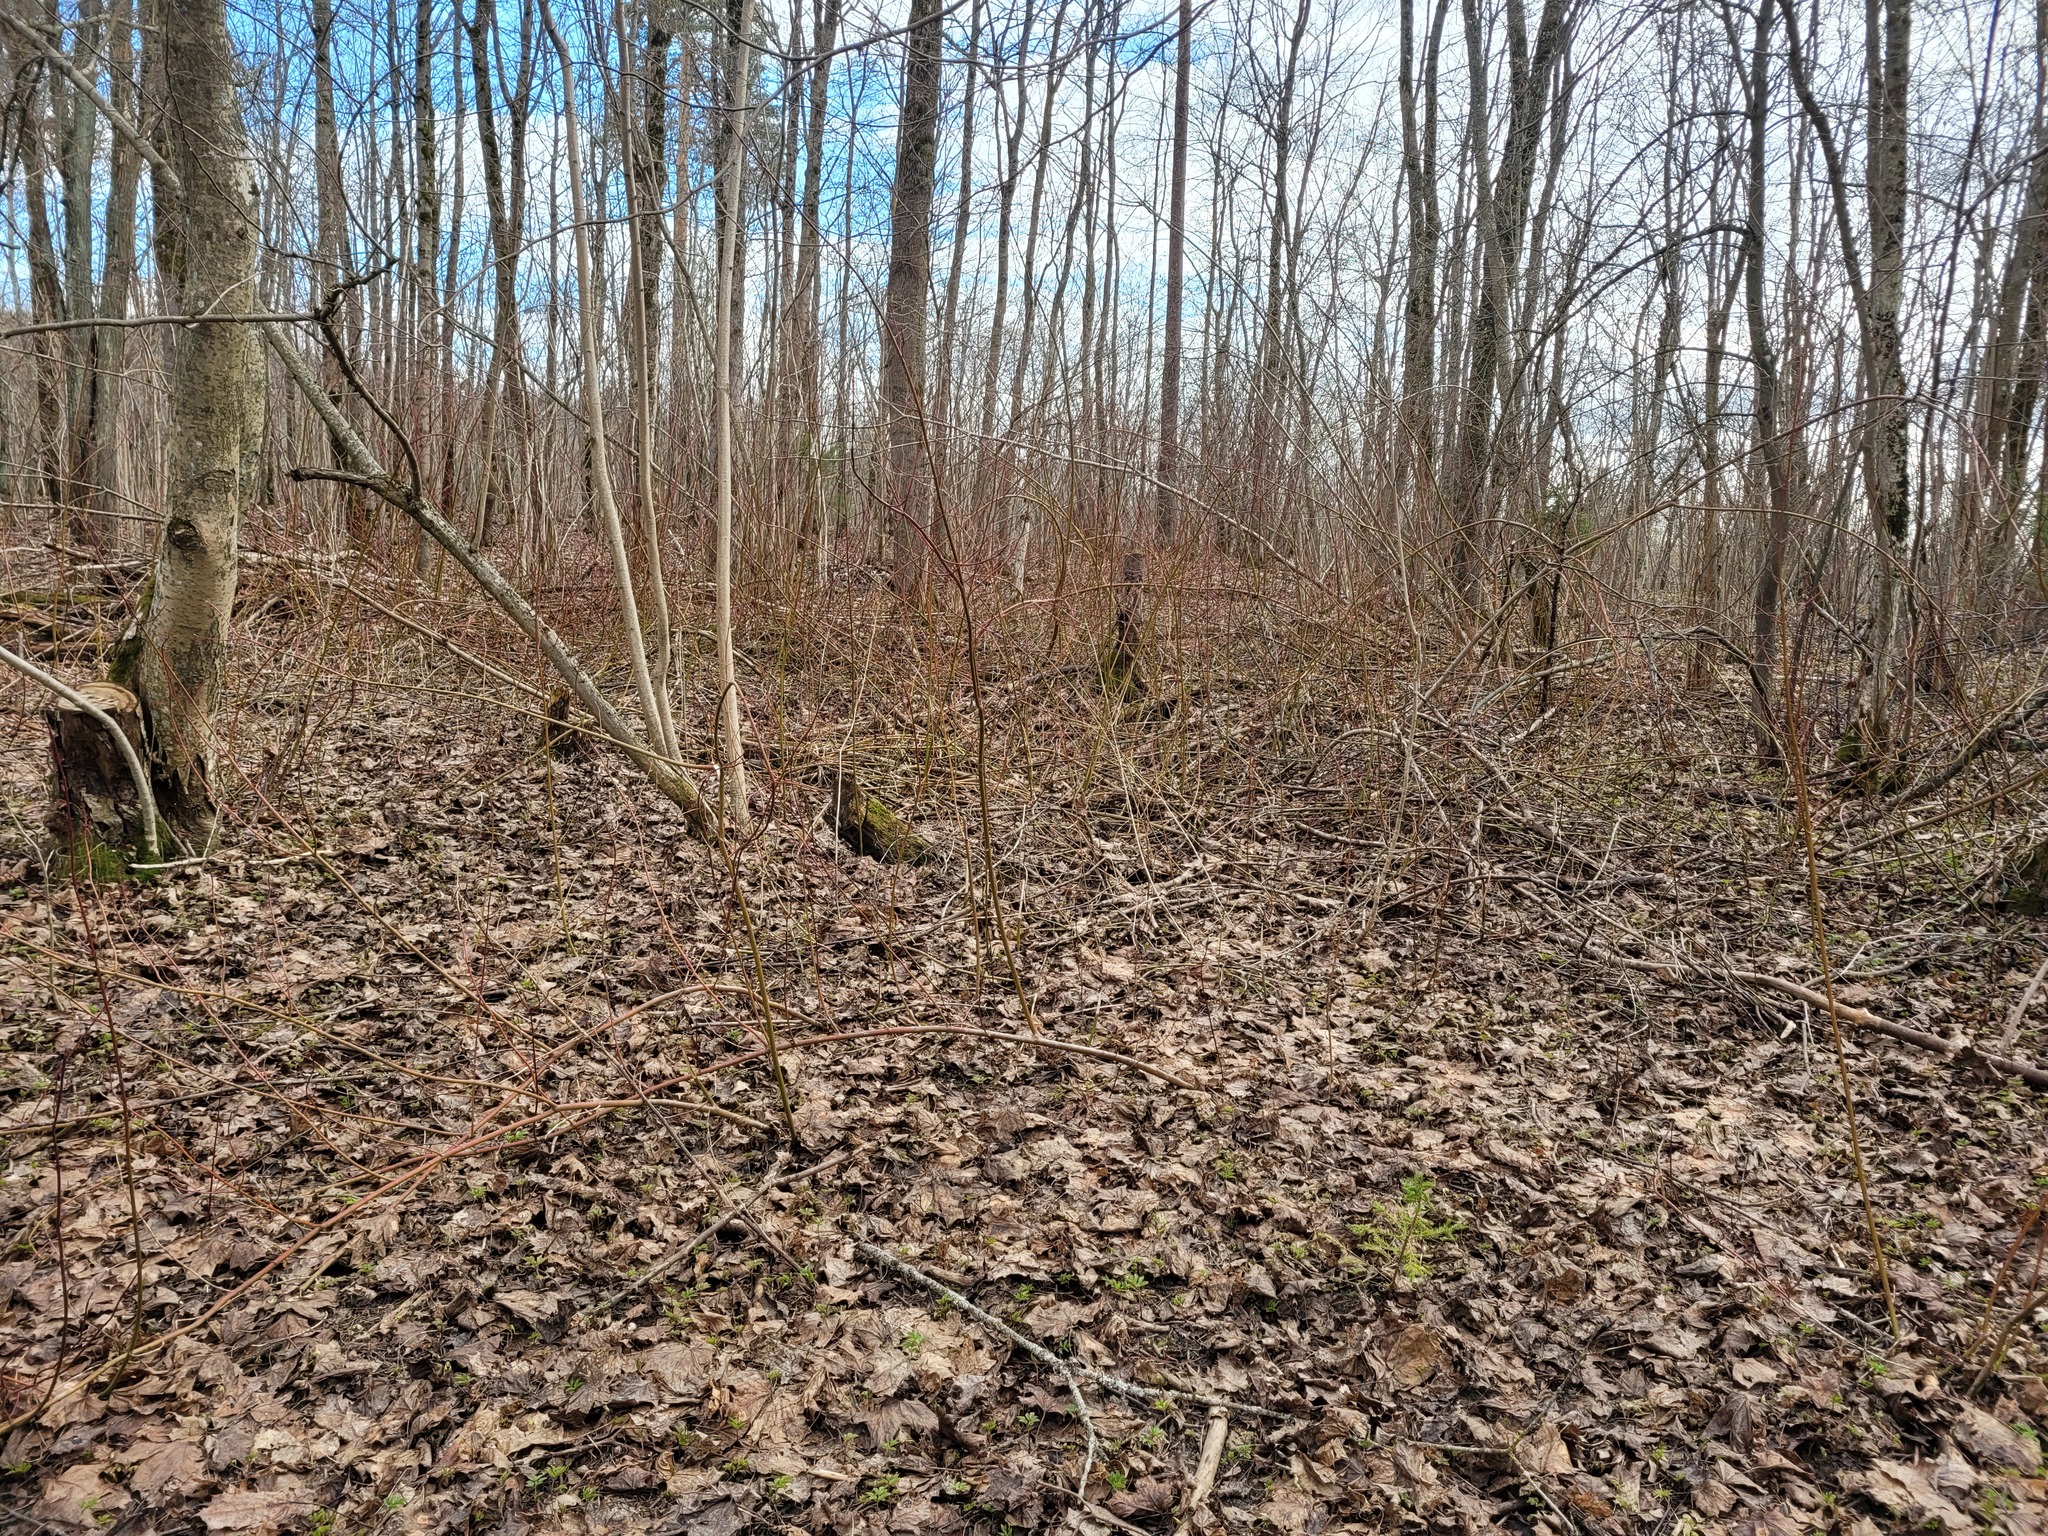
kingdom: Plantae
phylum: Tracheophyta
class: Magnoliopsida
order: Cornales
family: Cornaceae
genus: Cornus
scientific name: Cornus sericea
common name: Red-osier dogwood
